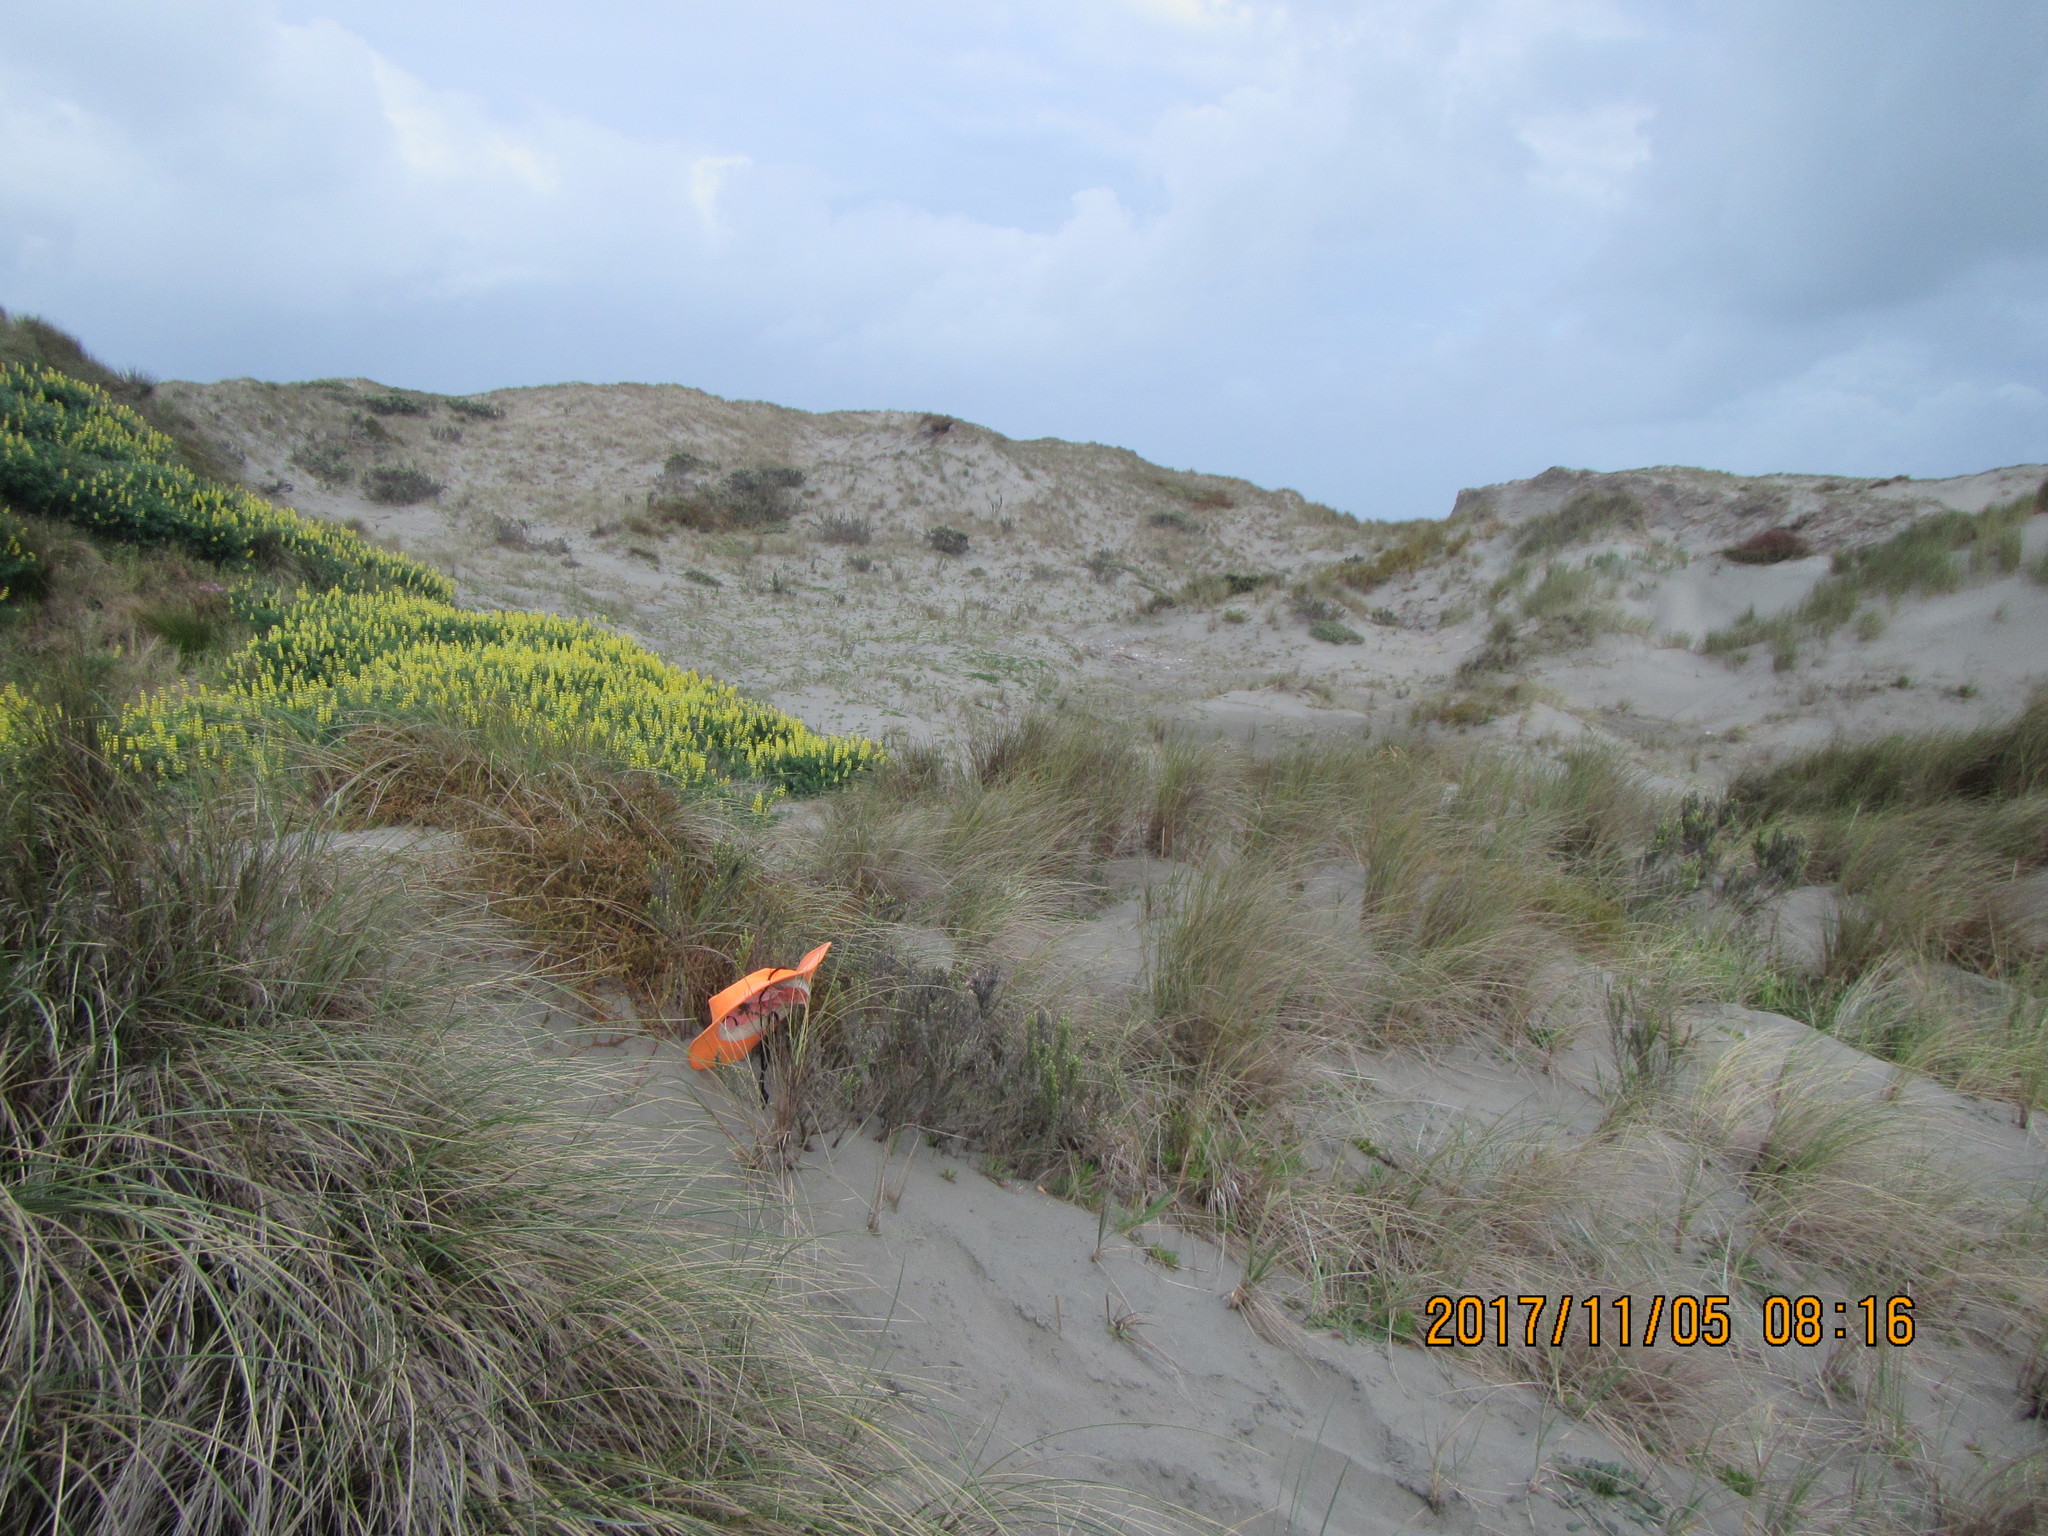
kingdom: Plantae
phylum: Tracheophyta
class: Magnoliopsida
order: Asterales
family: Asteraceae
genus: Ozothamnus
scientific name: Ozothamnus leptophyllus
